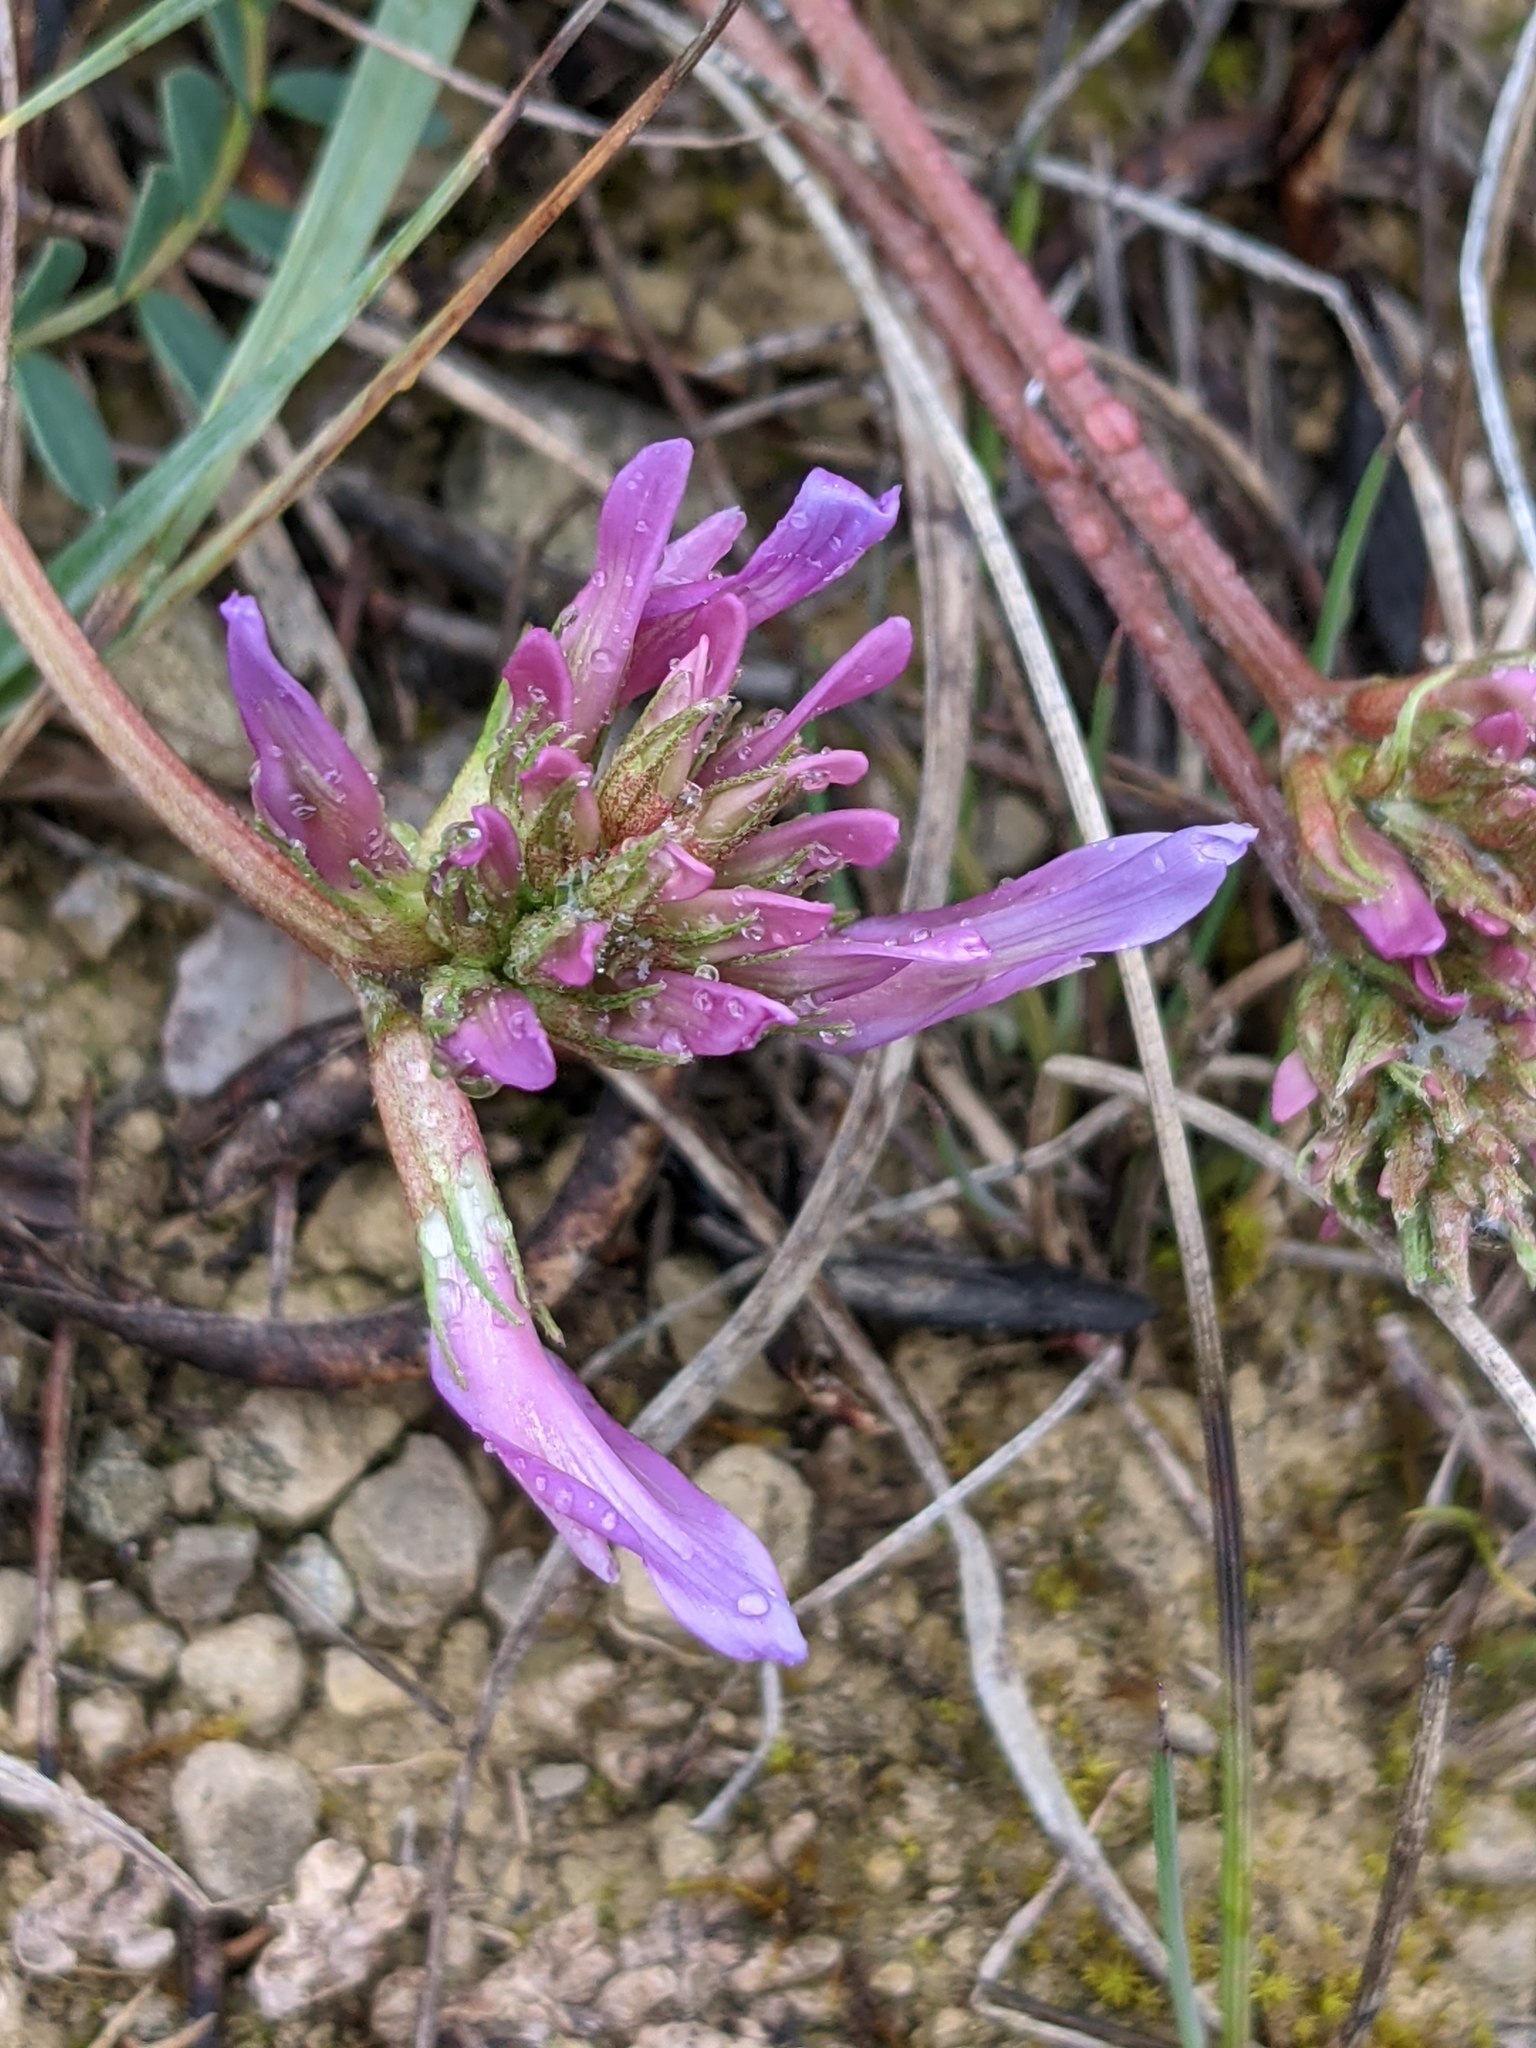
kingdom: Plantae
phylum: Tracheophyta
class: Magnoliopsida
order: Fabales
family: Fabaceae
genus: Astragalus
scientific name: Astragalus monspessulanus
